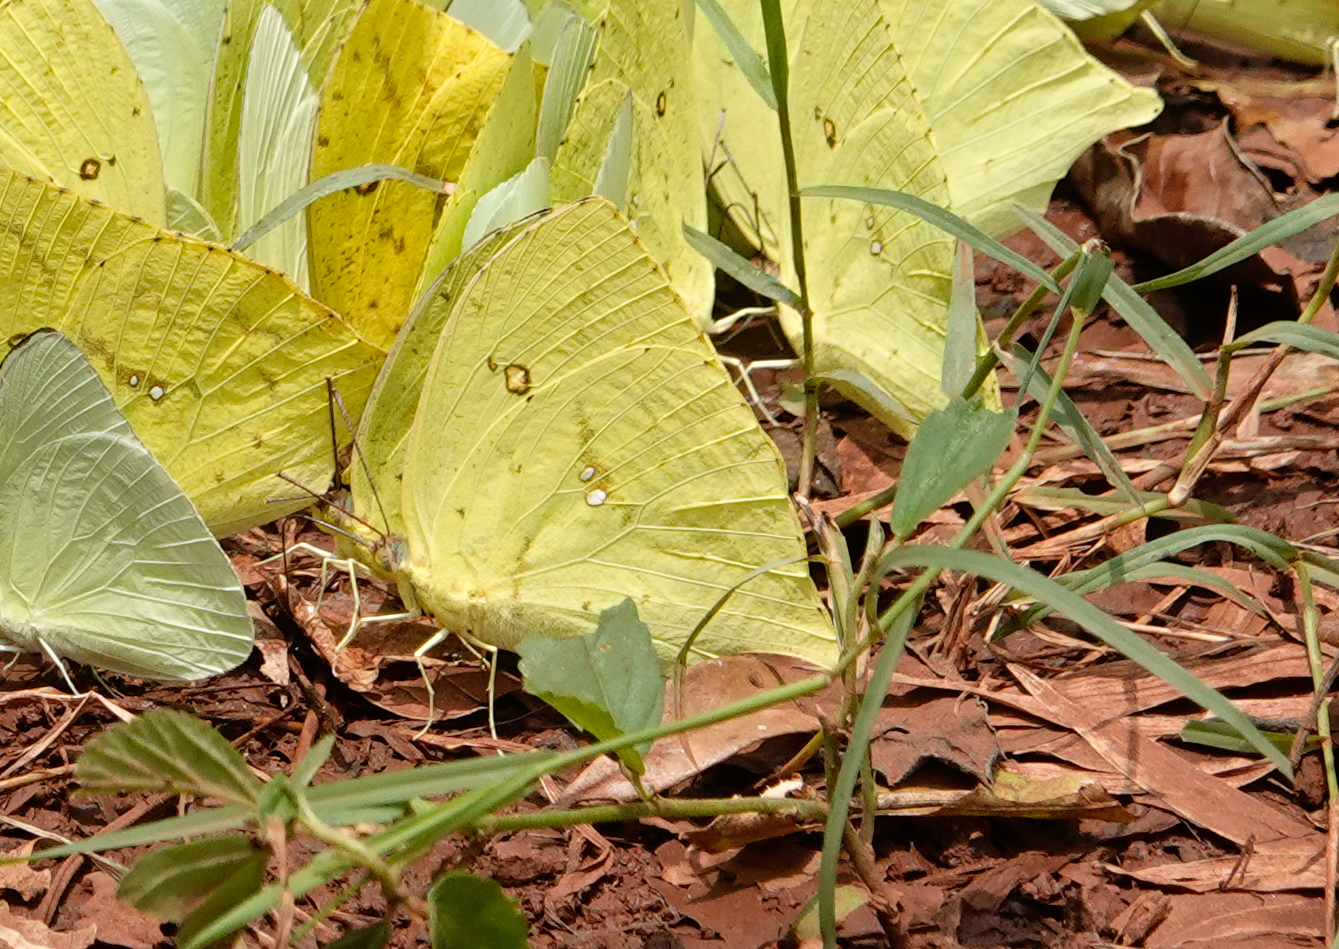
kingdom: Animalia
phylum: Arthropoda
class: Insecta
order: Lepidoptera
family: Pieridae
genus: Phoebis
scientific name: Phoebis neocypris
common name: Tailed sulphur
